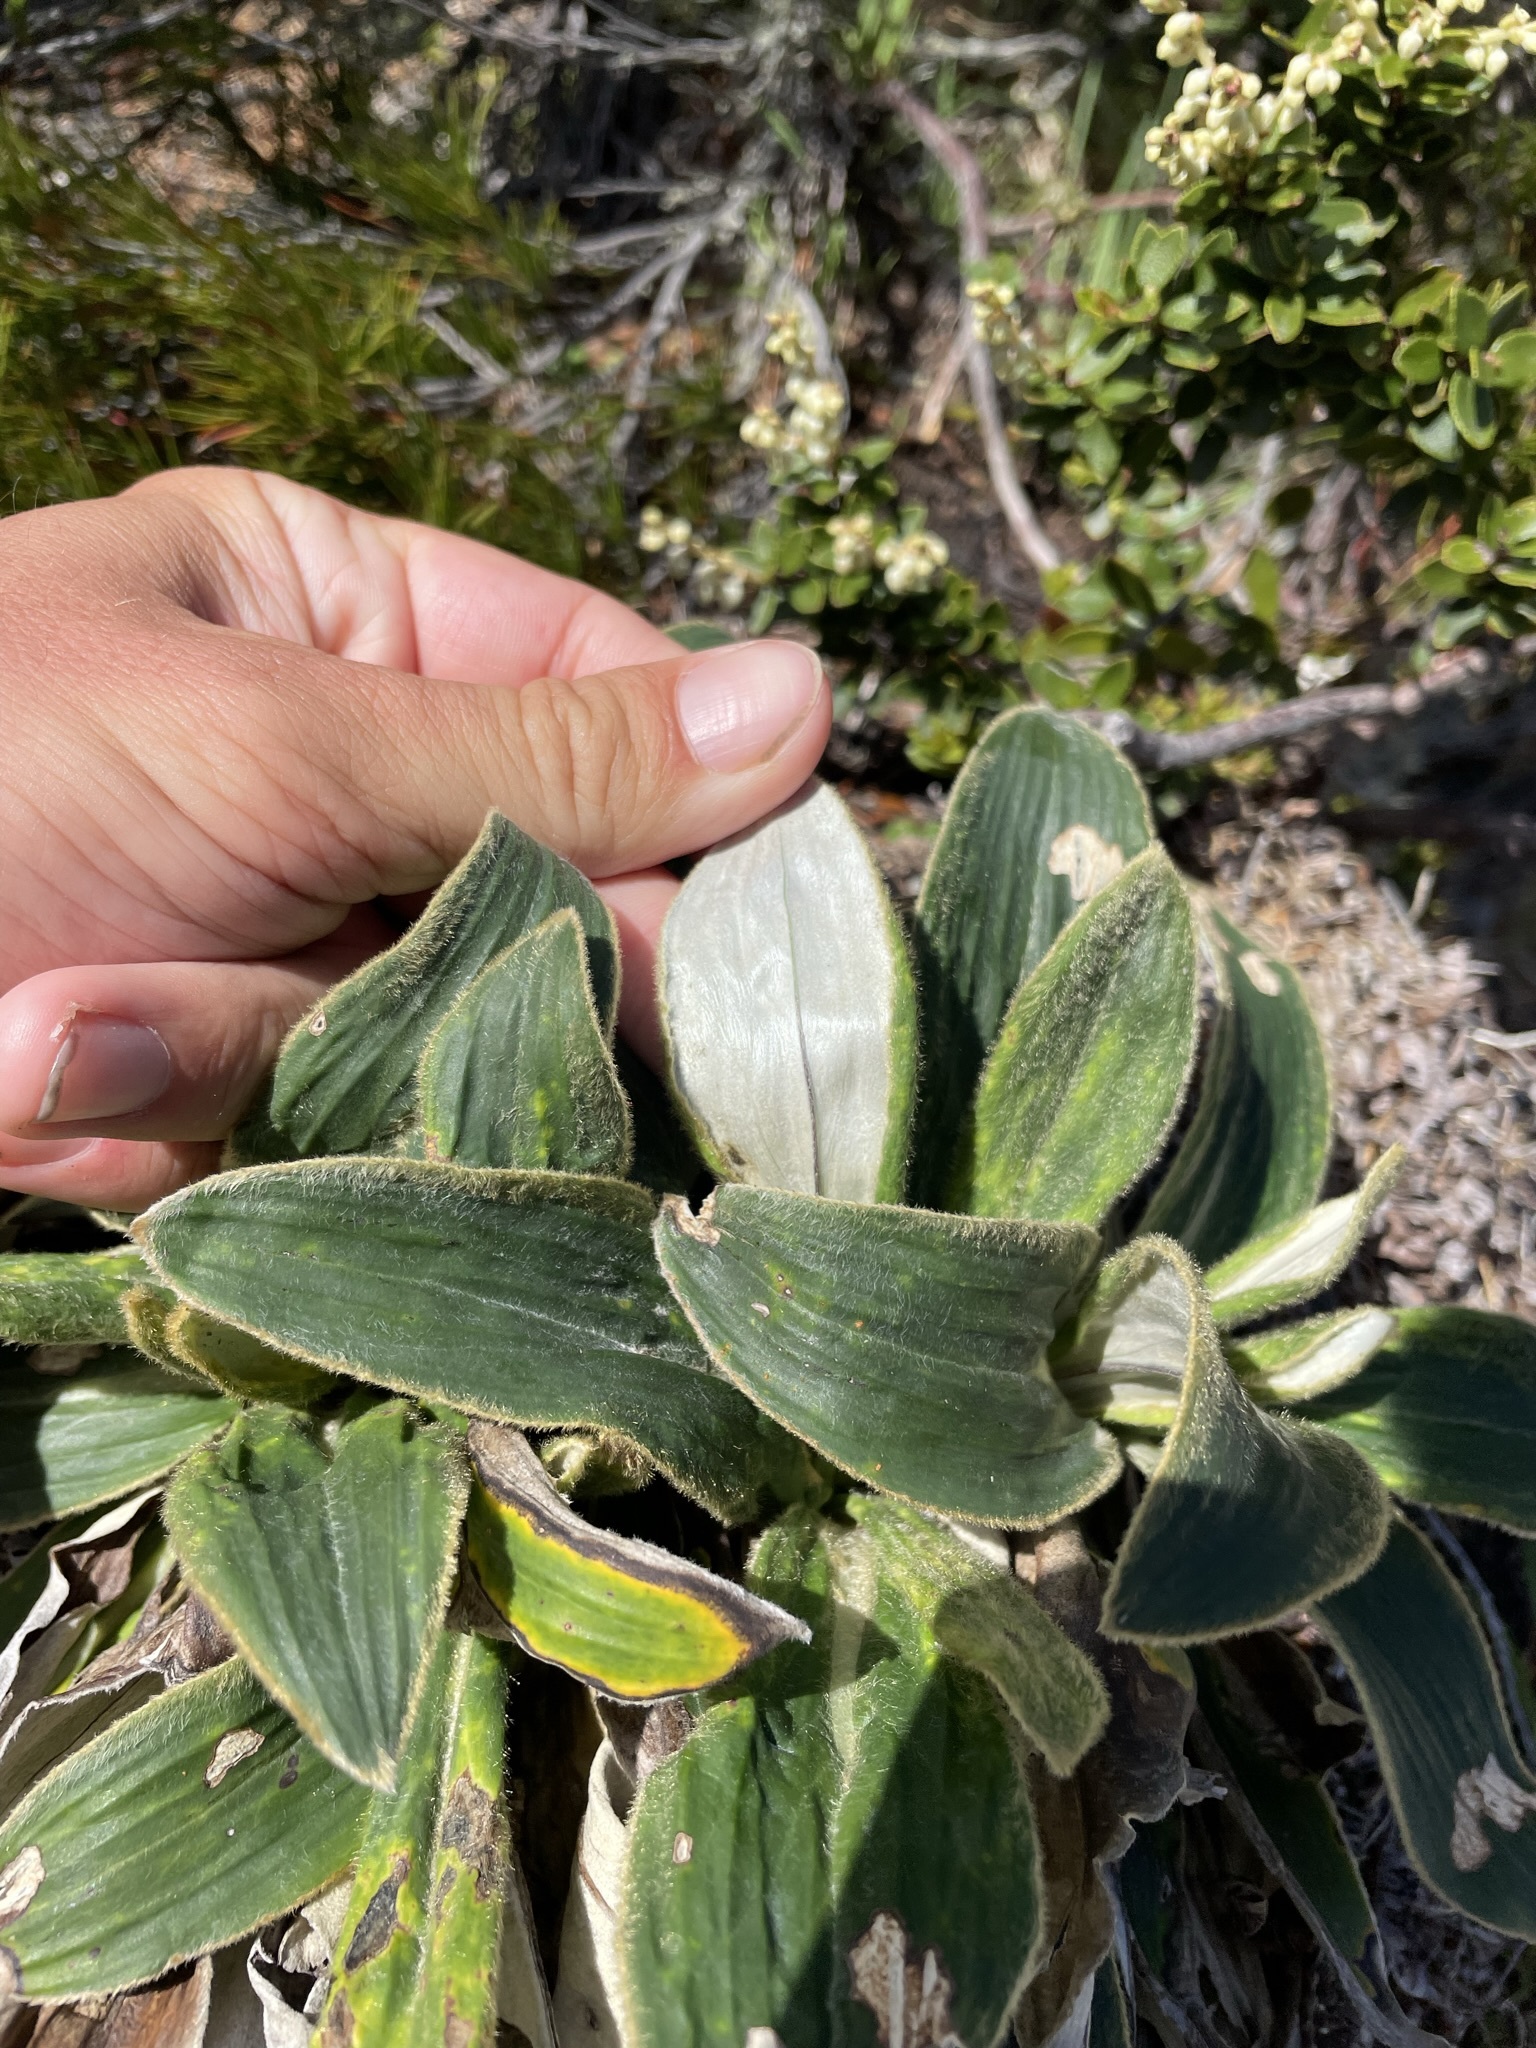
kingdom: Plantae
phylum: Tracheophyta
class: Magnoliopsida
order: Asterales
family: Asteraceae
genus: Celmisia
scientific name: Celmisia verbascifolia
